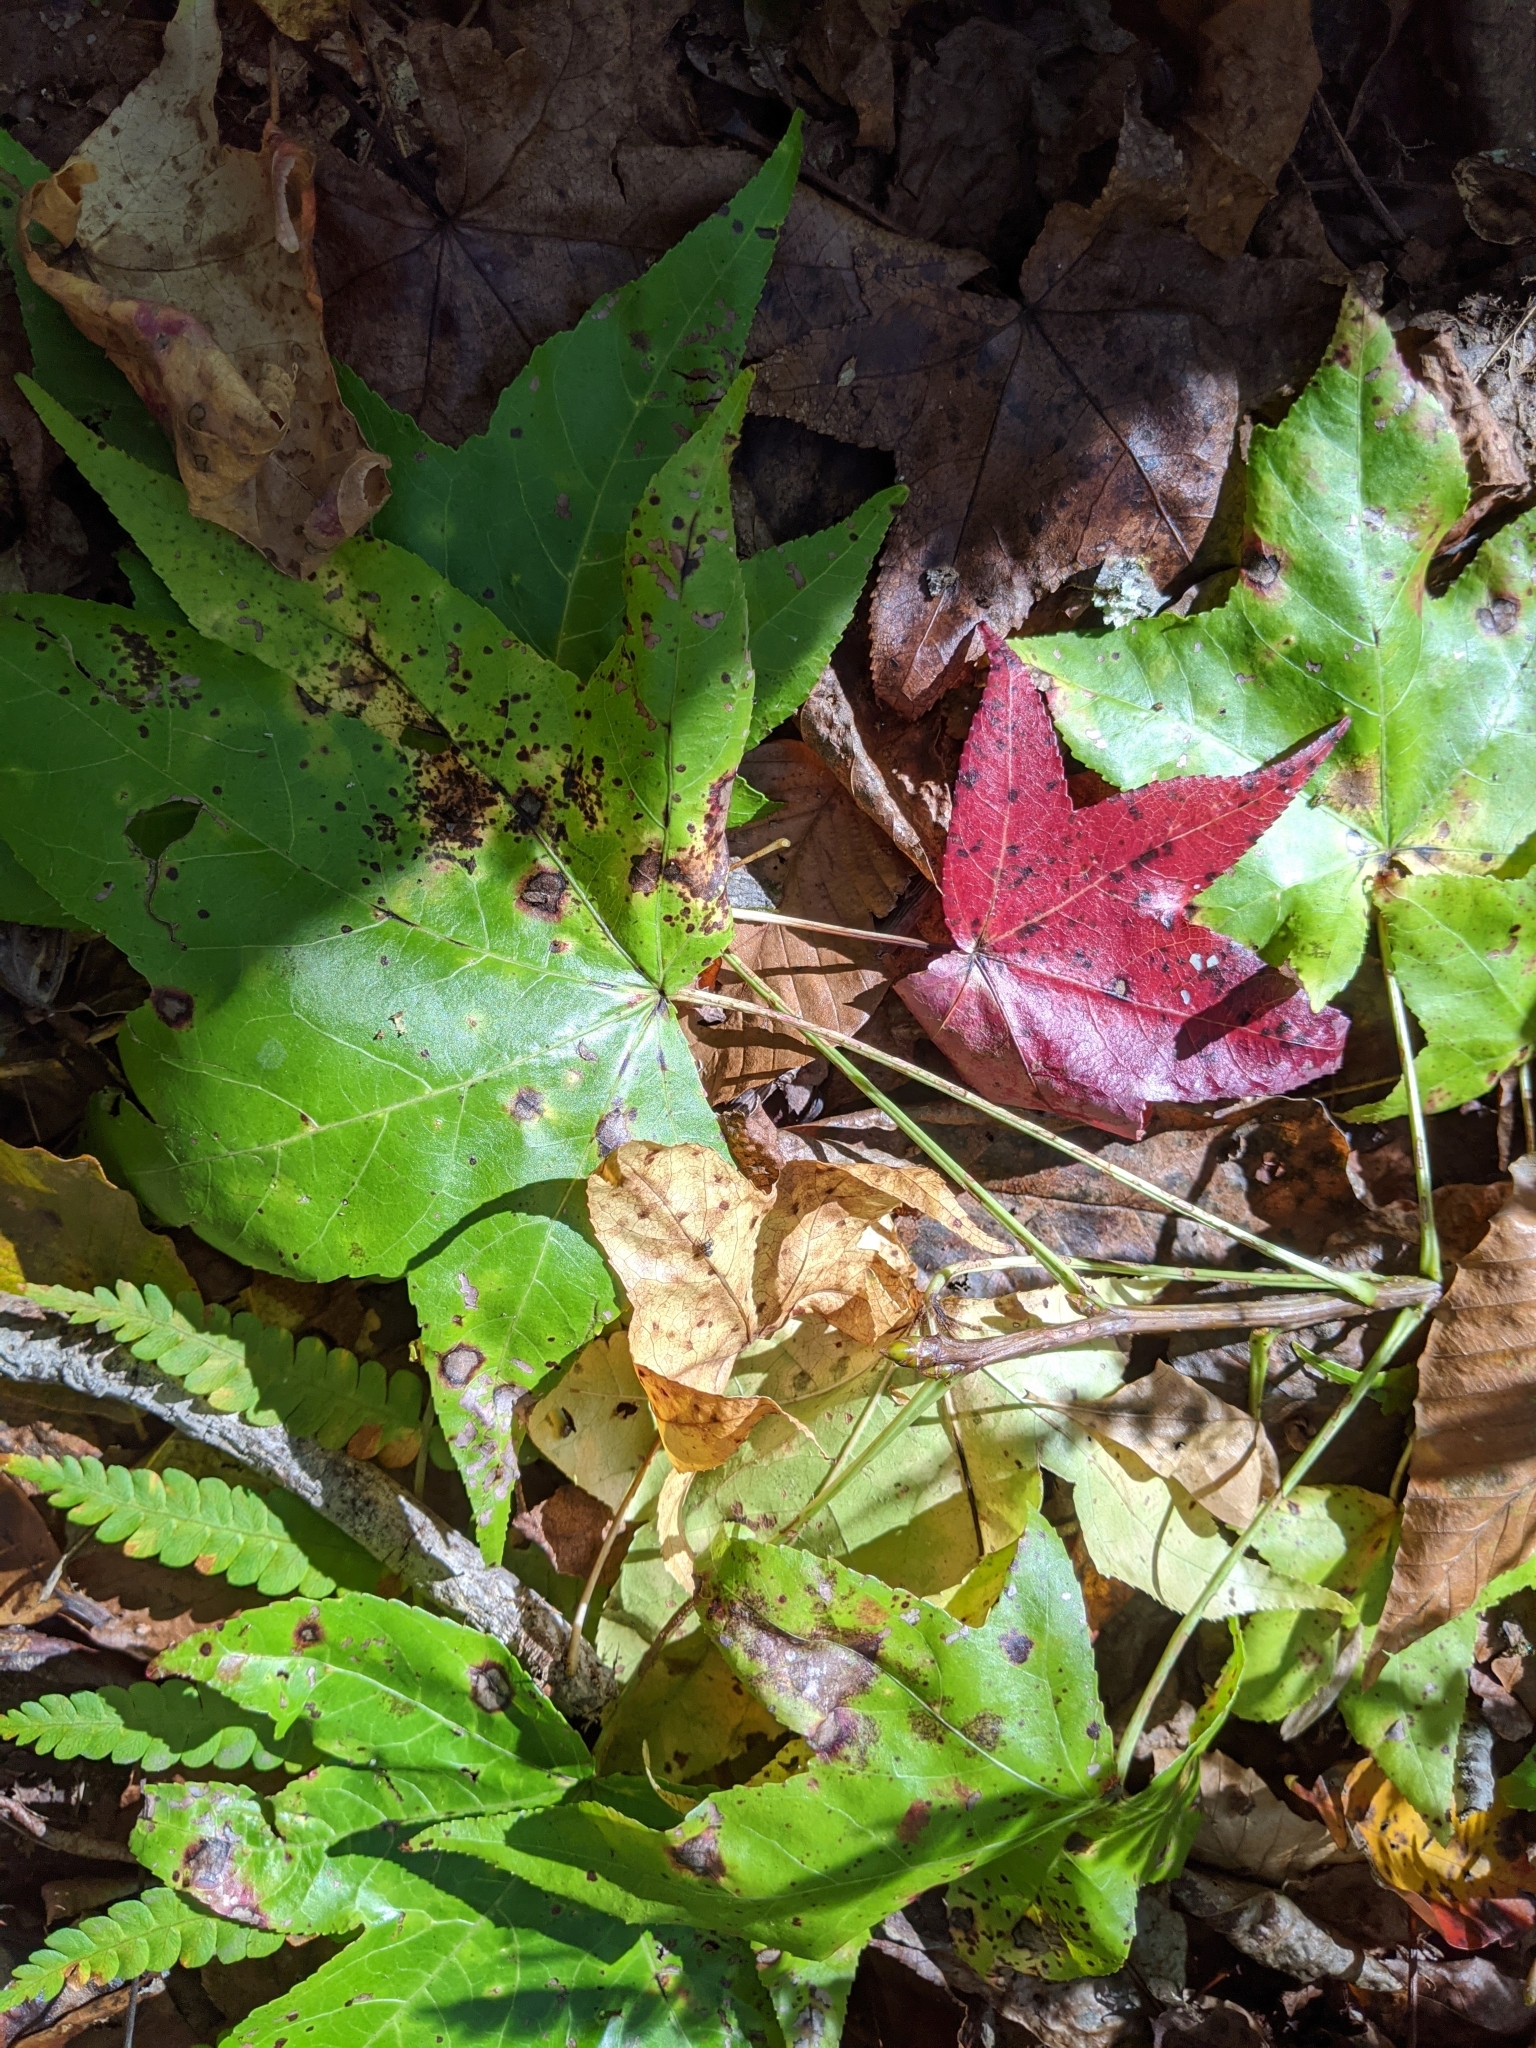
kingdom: Plantae
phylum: Tracheophyta
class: Magnoliopsida
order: Saxifragales
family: Altingiaceae
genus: Liquidambar
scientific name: Liquidambar styraciflua
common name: Sweet gum
